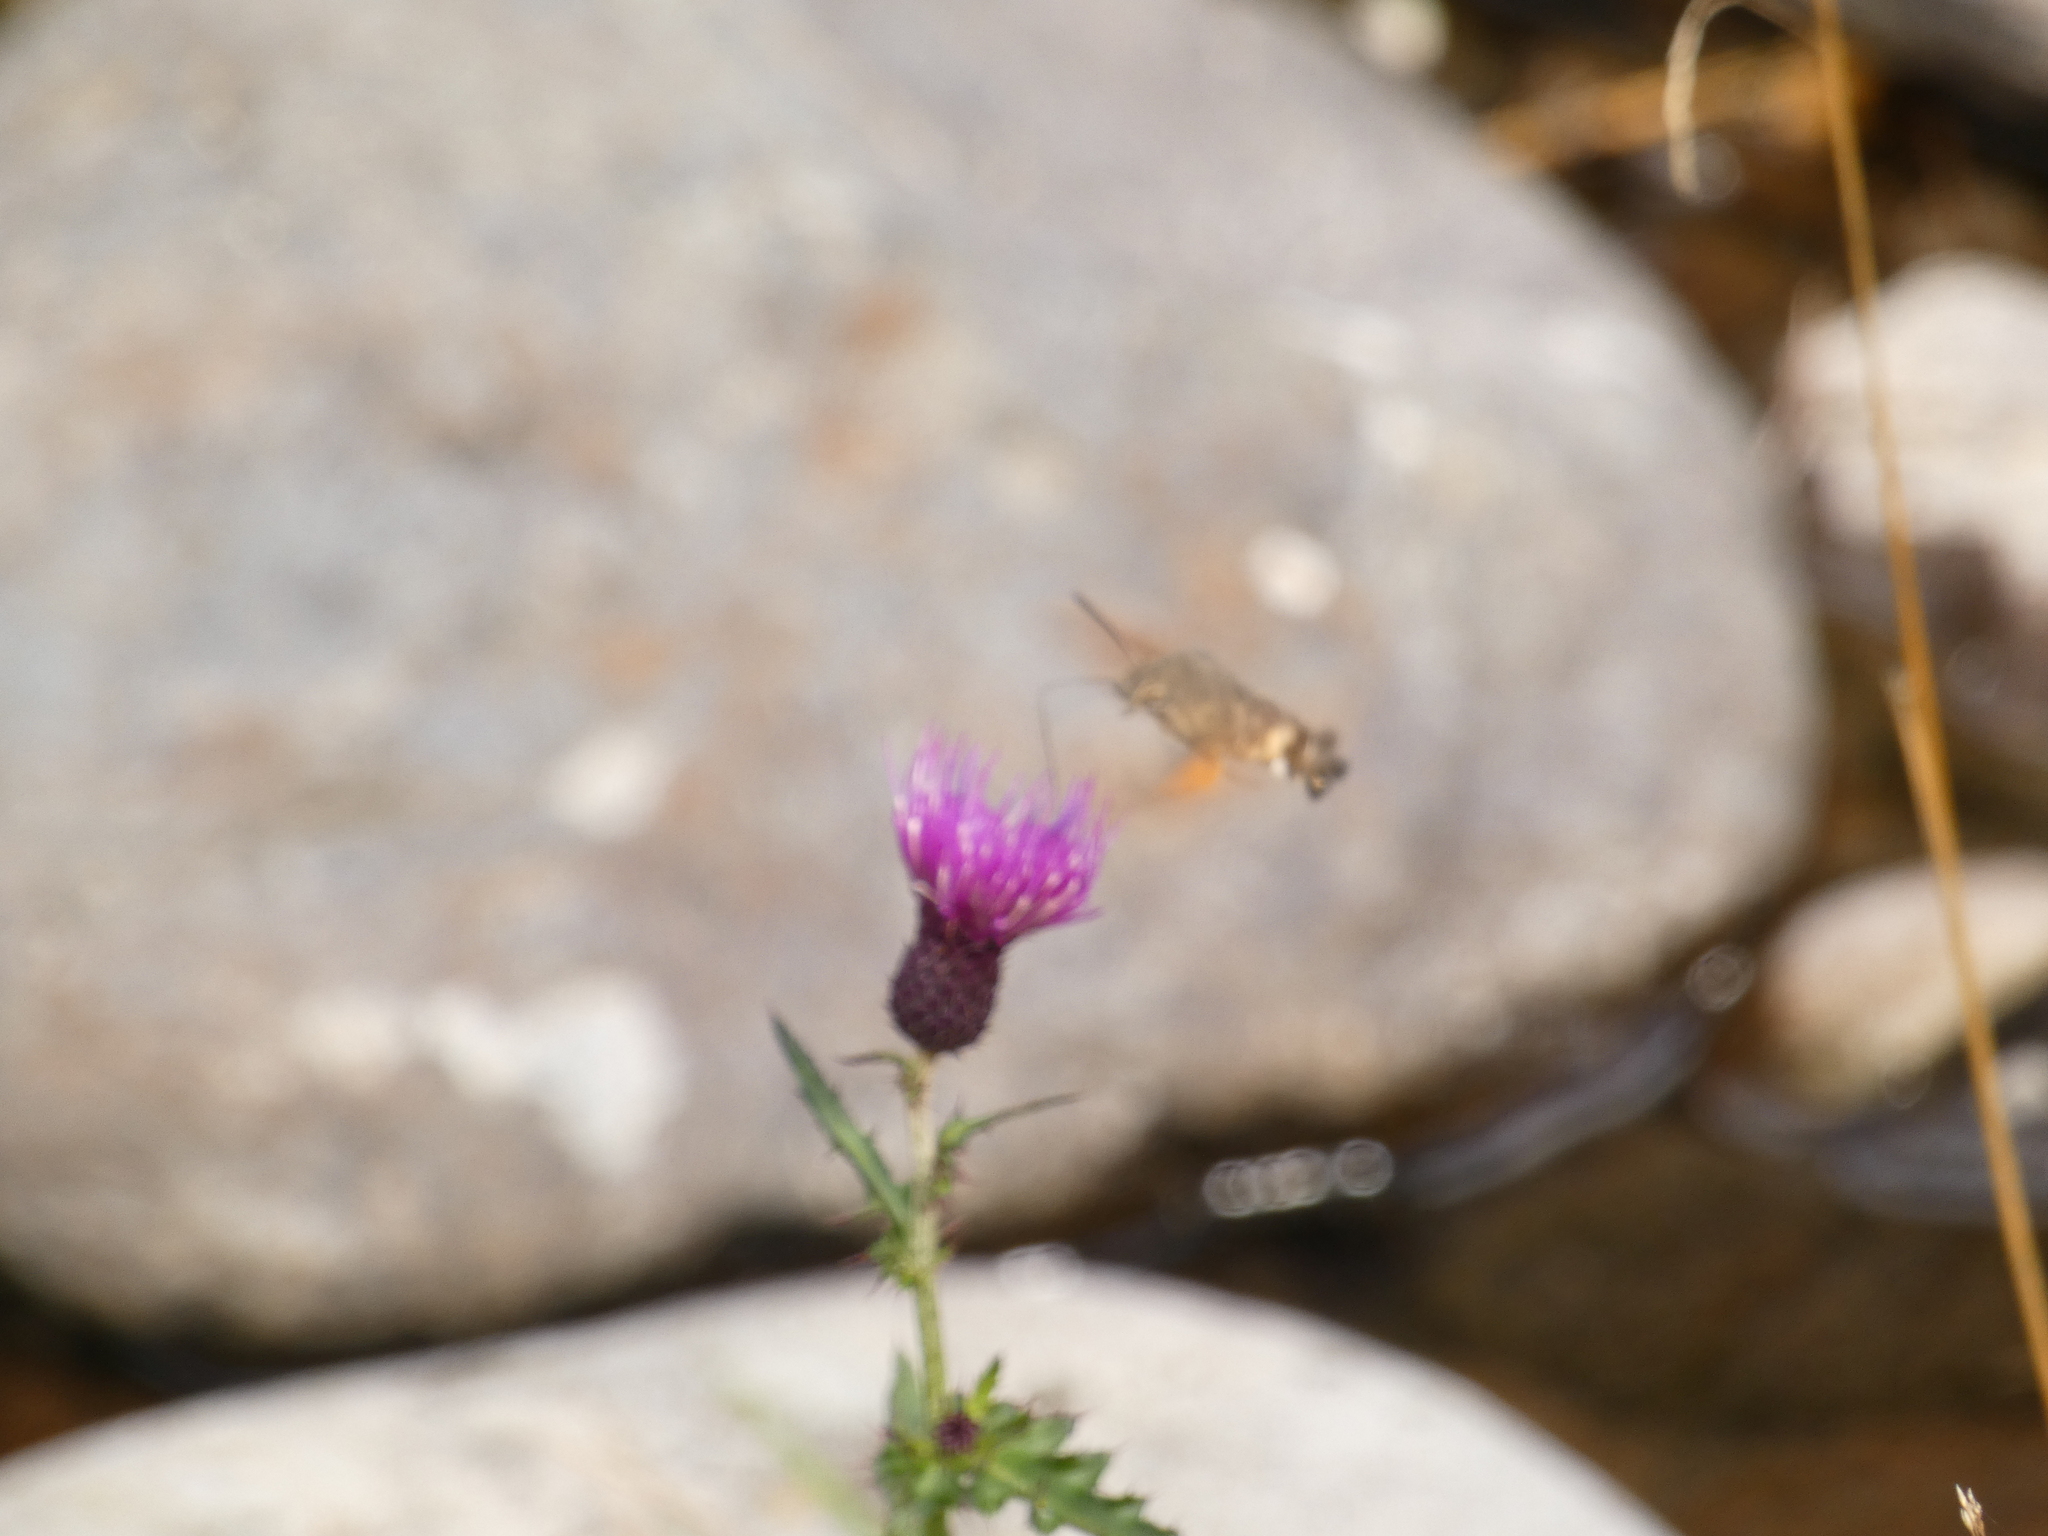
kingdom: Animalia
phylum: Arthropoda
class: Insecta
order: Lepidoptera
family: Sphingidae
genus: Macroglossum
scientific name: Macroglossum stellatarum
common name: Humming-bird hawk-moth
